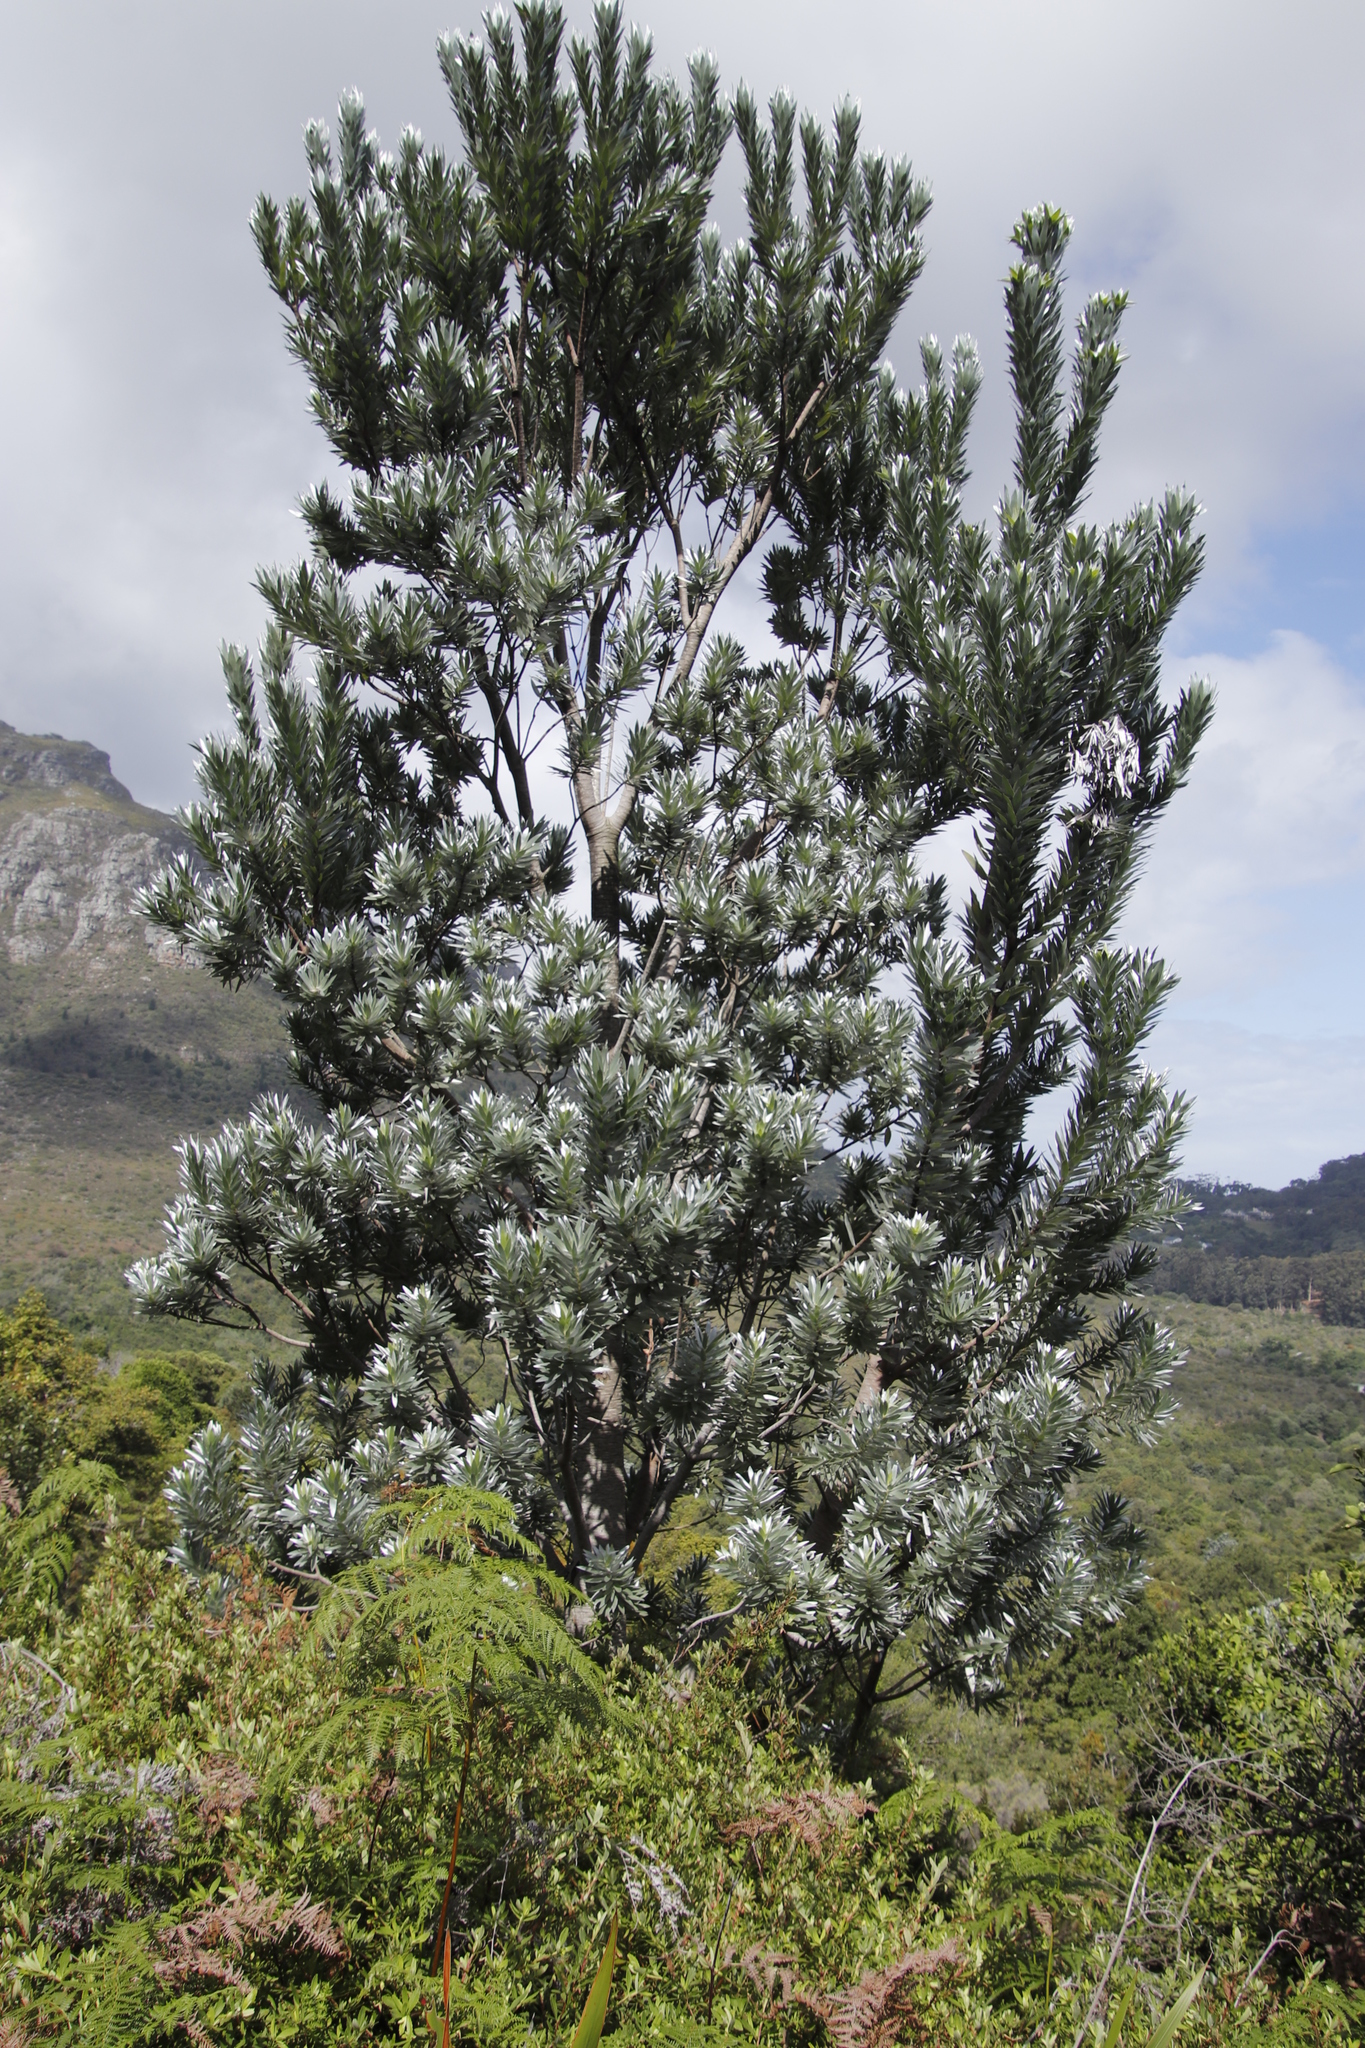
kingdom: Plantae
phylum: Tracheophyta
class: Magnoliopsida
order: Proteales
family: Proteaceae
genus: Leucadendron
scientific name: Leucadendron argenteum
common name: Cape silver tree
